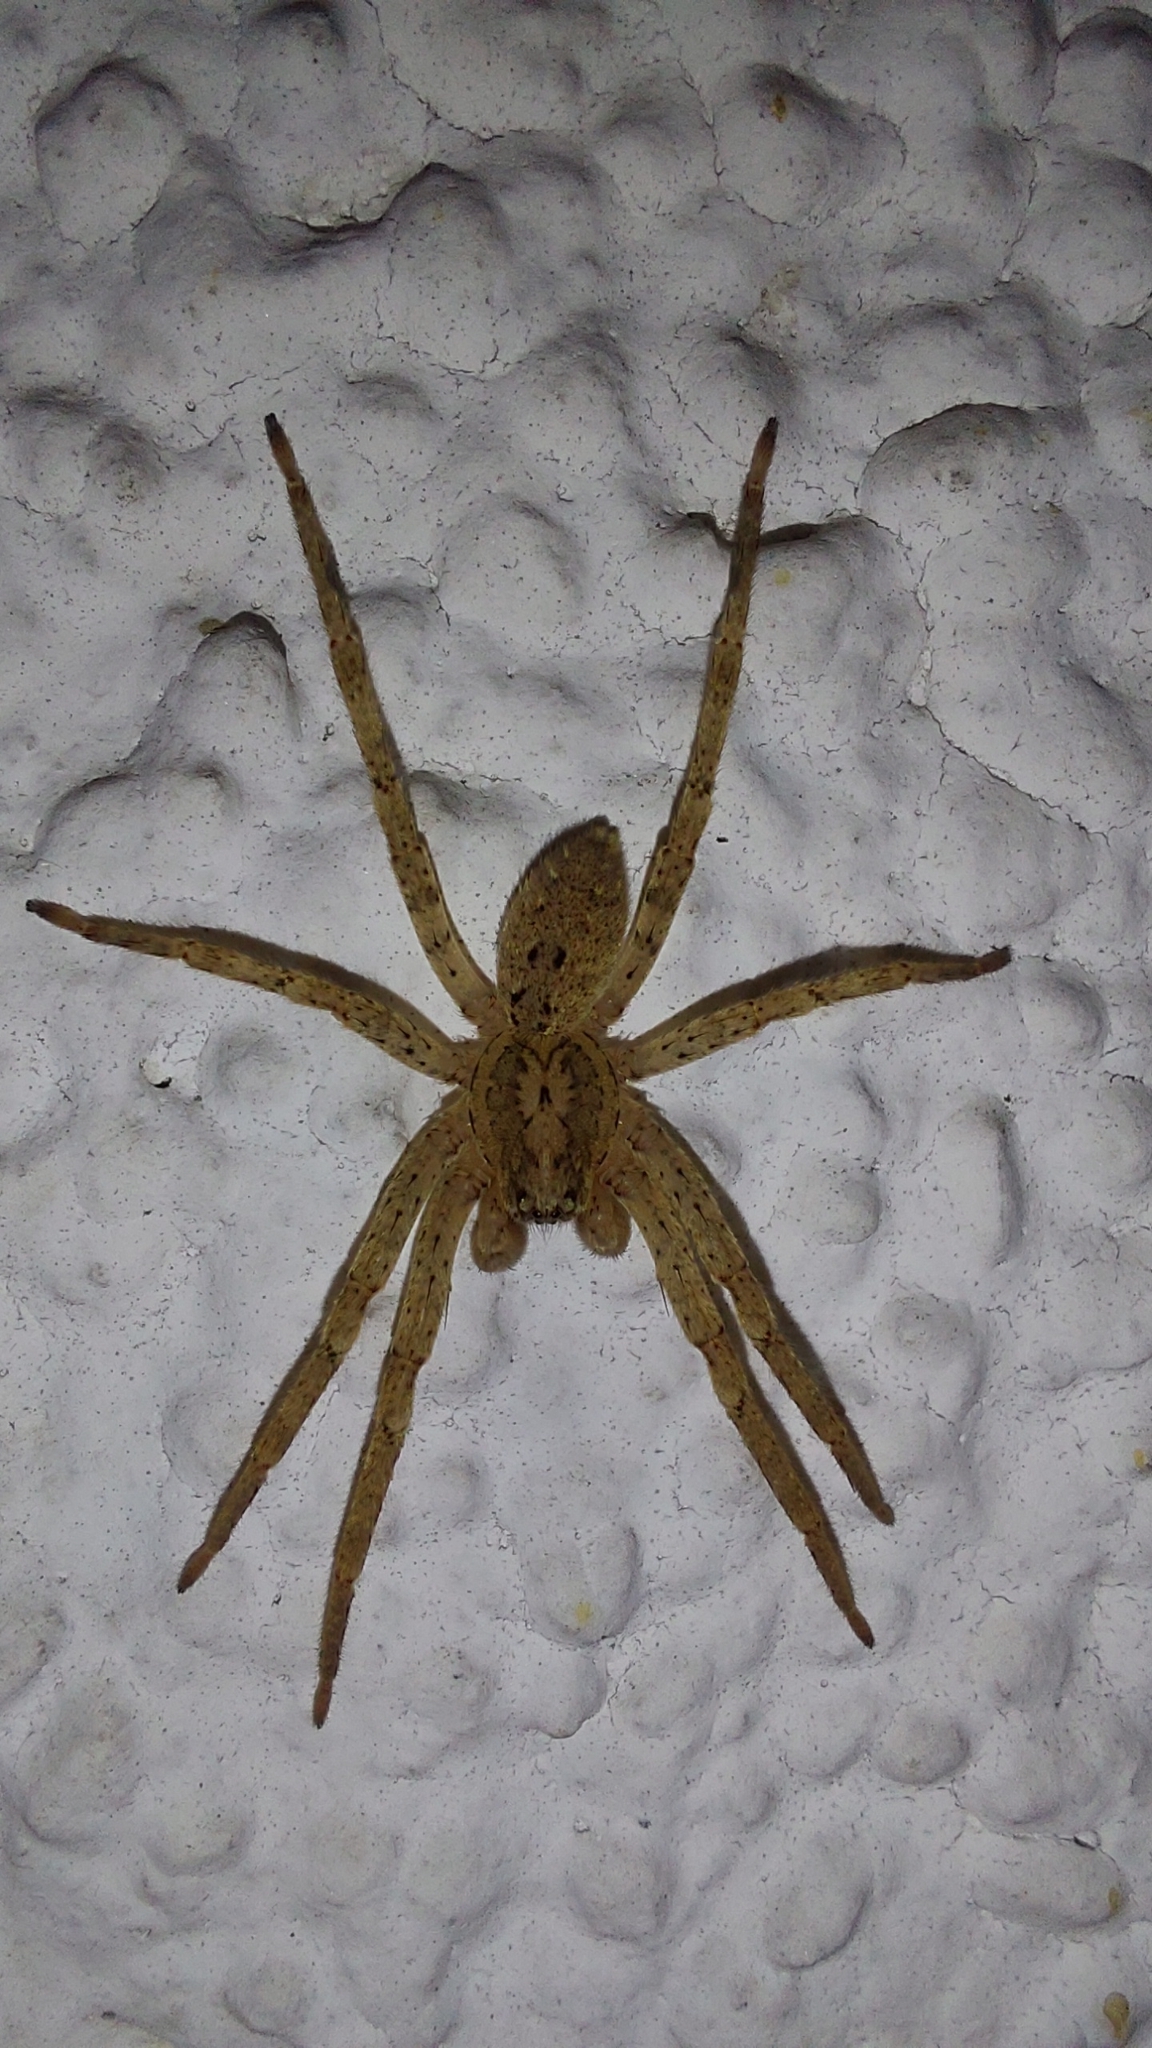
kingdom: Animalia
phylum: Arthropoda
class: Arachnida
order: Araneae
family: Zoropsidae
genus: Zoropsis
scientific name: Zoropsis spinimana
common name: Zoropsid spider
